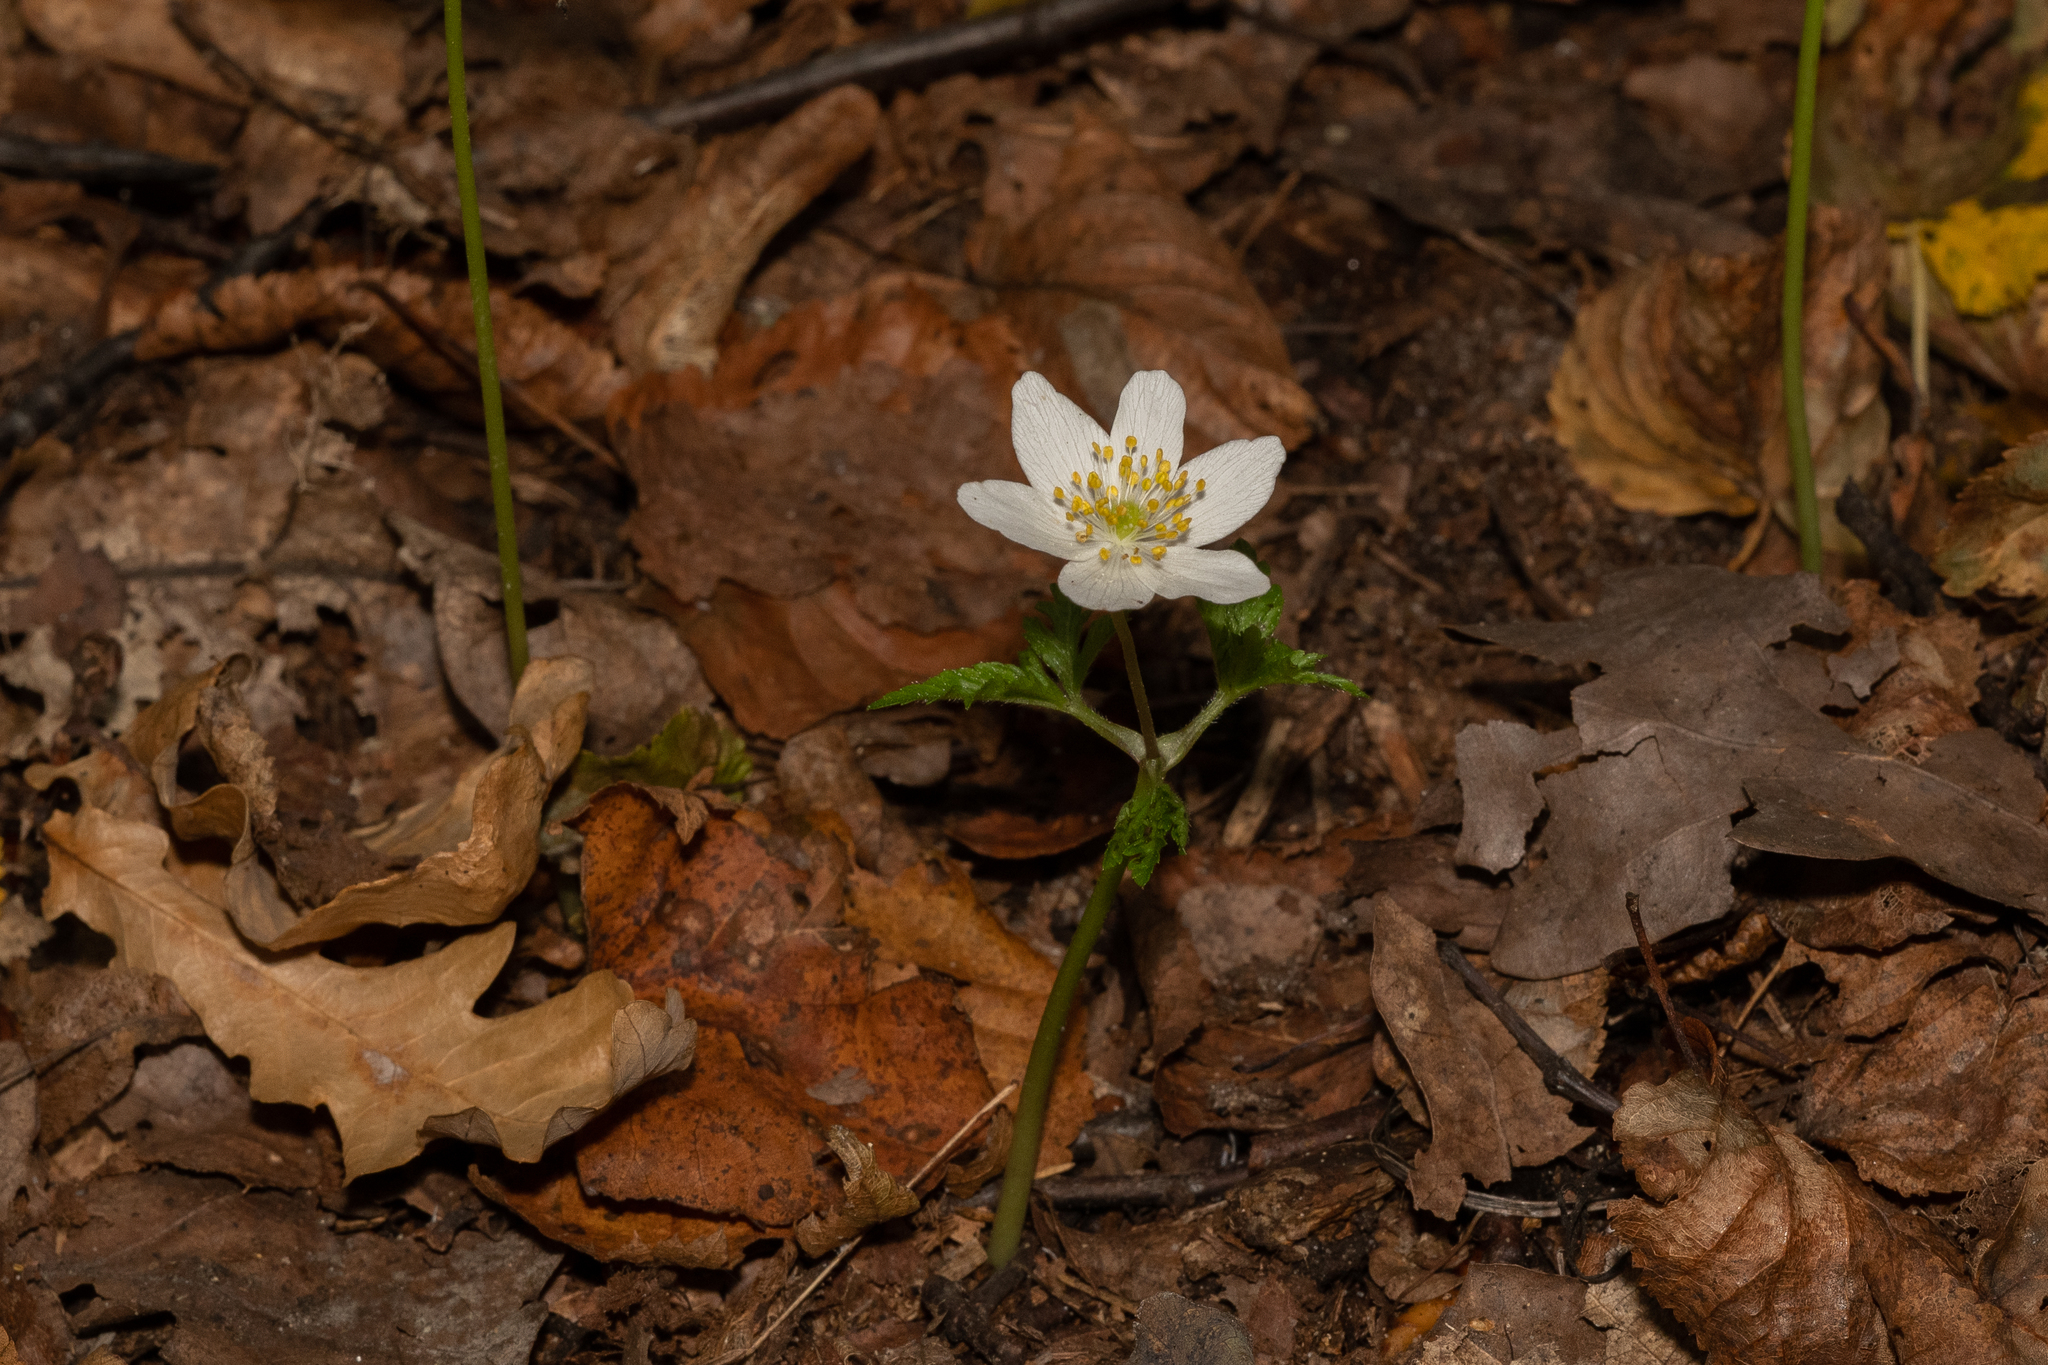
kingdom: Plantae
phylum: Tracheophyta
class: Magnoliopsida
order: Ranunculales
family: Ranunculaceae
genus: Anemone
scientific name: Anemone nemorosa
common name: Wood anemone
